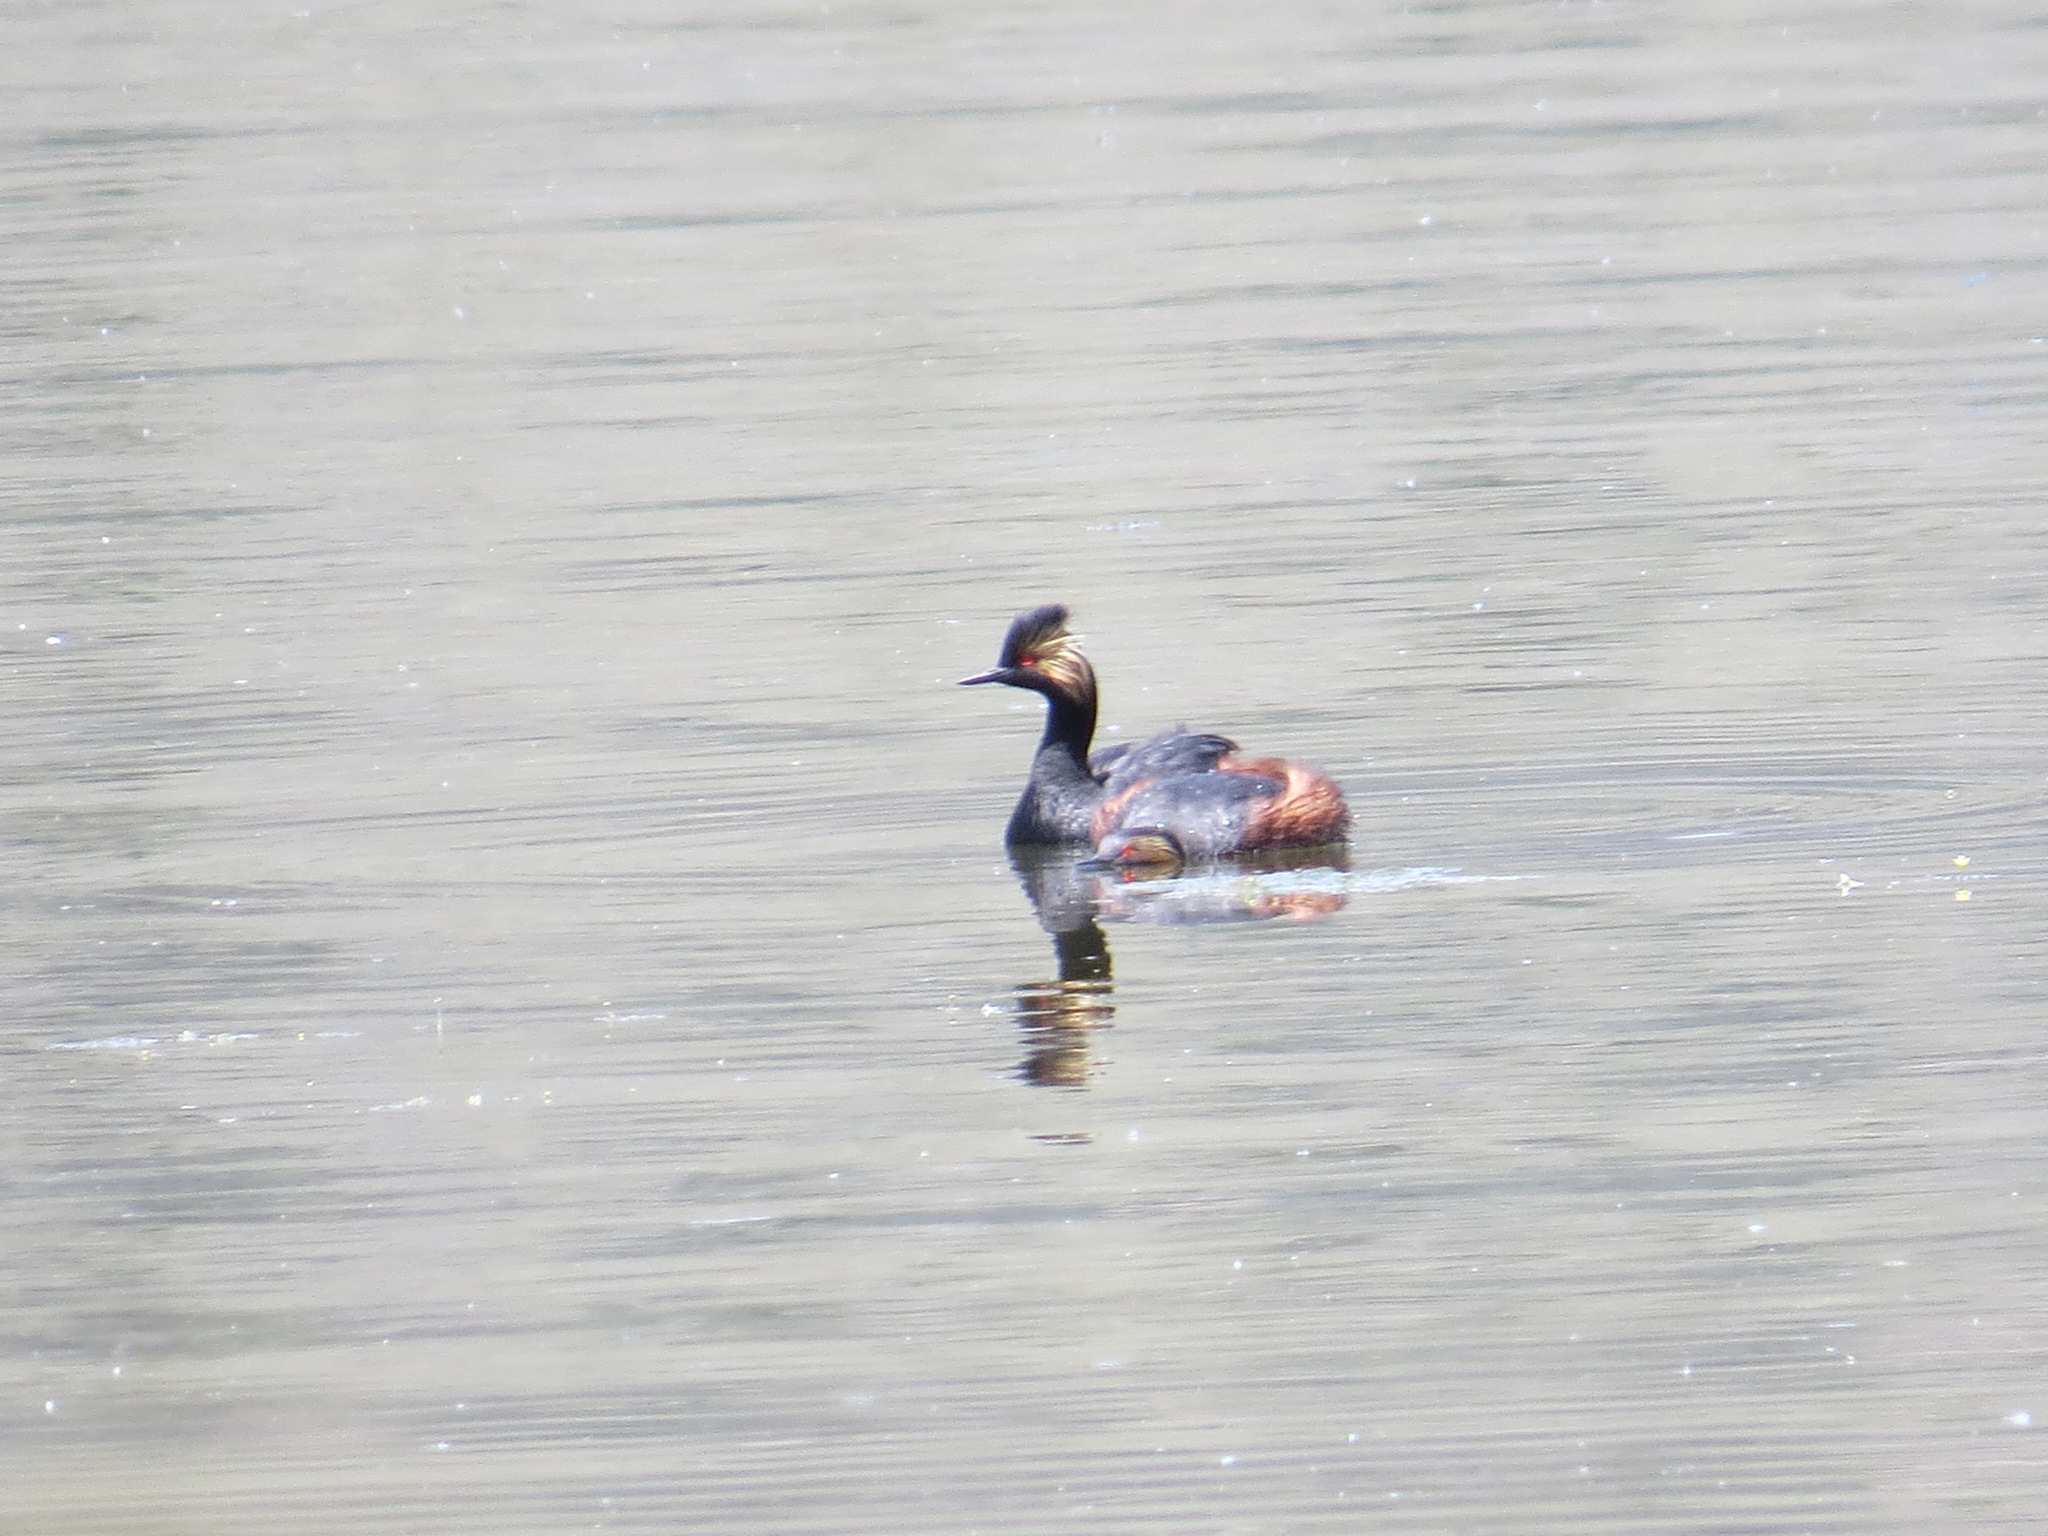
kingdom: Animalia
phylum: Chordata
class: Aves
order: Podicipediformes
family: Podicipedidae
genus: Podiceps
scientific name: Podiceps nigricollis
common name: Black-necked grebe
